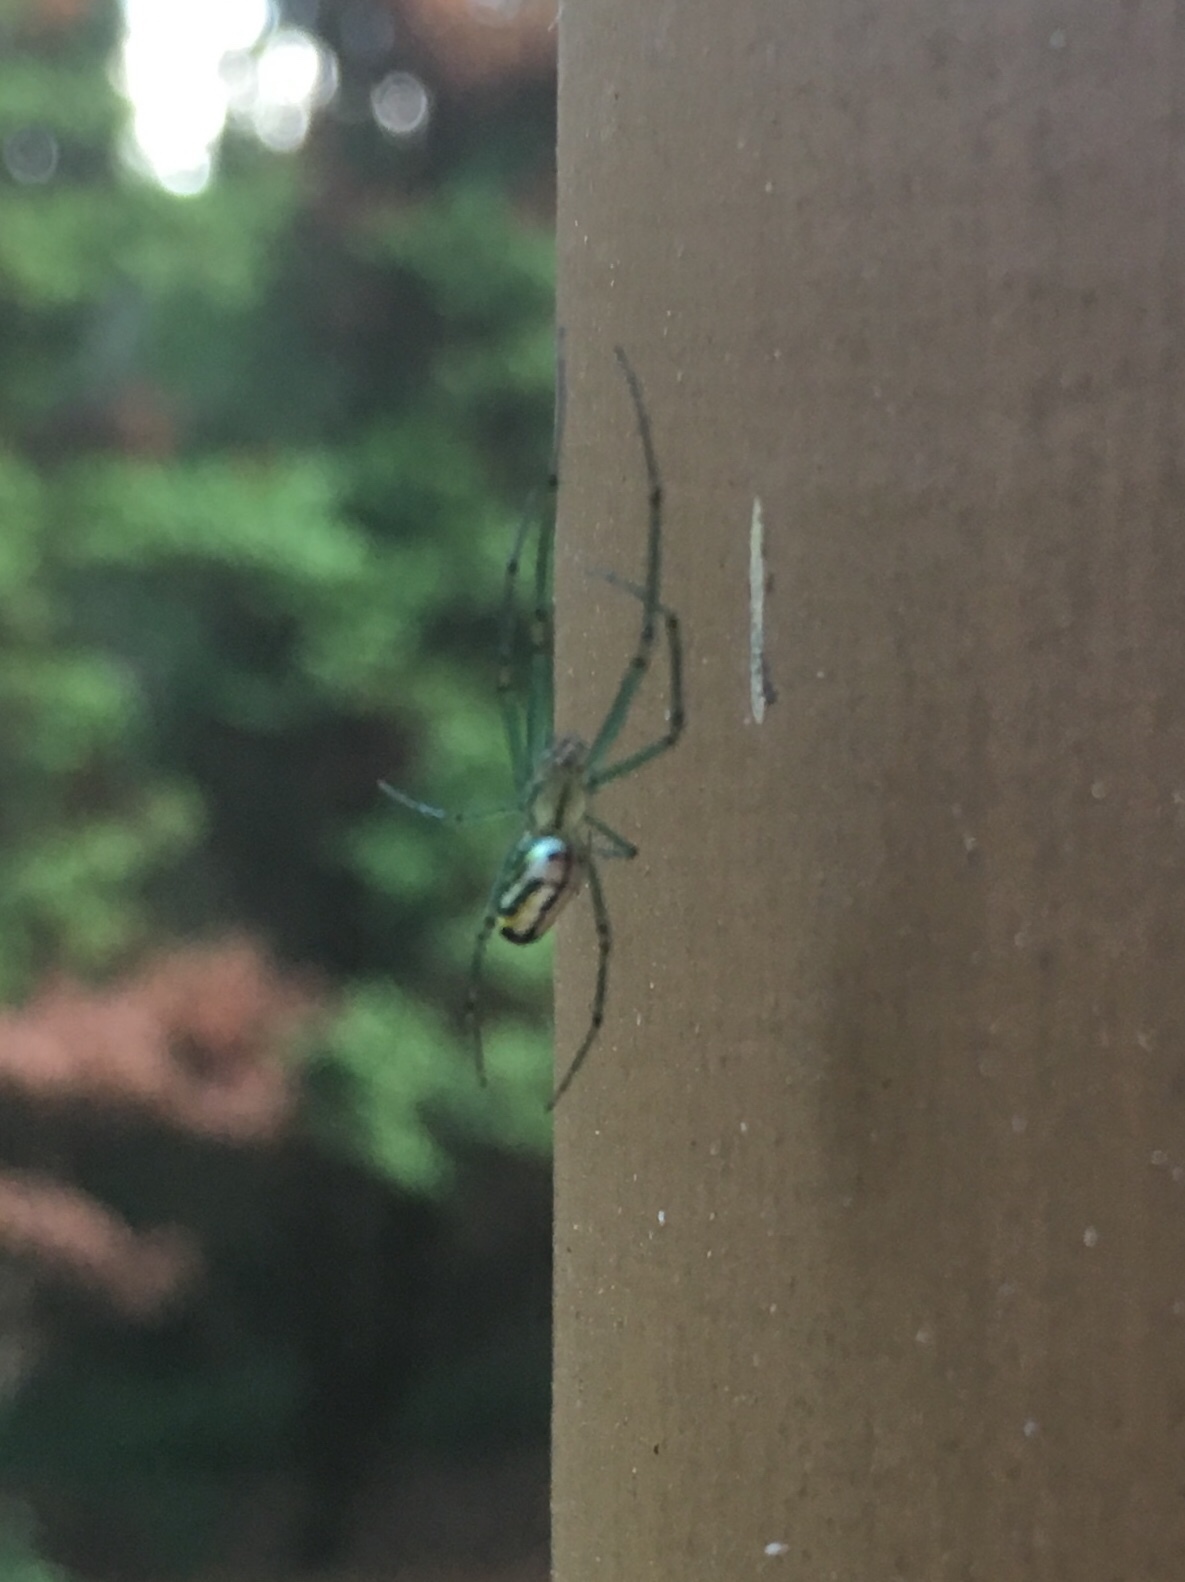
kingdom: Animalia
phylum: Arthropoda
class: Arachnida
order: Araneae
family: Tetragnathidae
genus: Leucauge
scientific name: Leucauge venusta
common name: Longjawed orb weavers
